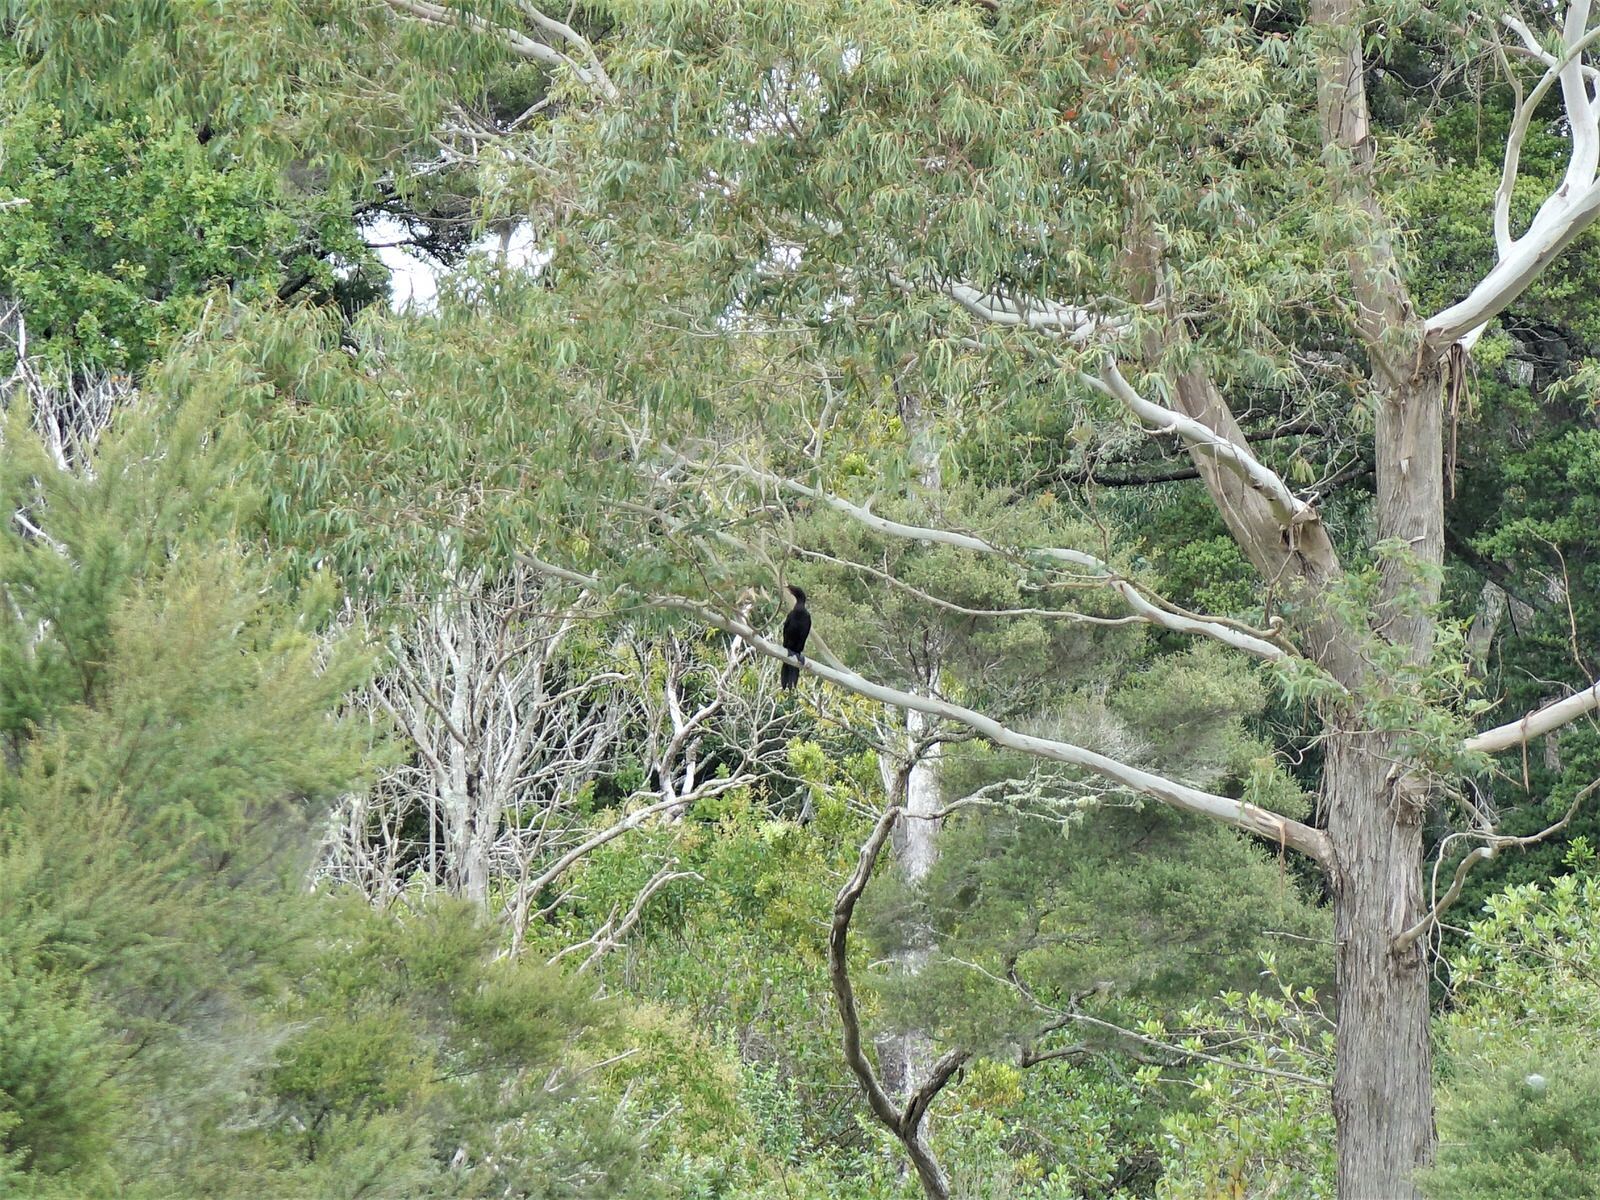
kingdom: Animalia
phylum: Chordata
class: Aves
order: Suliformes
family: Phalacrocoracidae
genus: Phalacrocorax
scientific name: Phalacrocorax carbo
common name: Great cormorant
